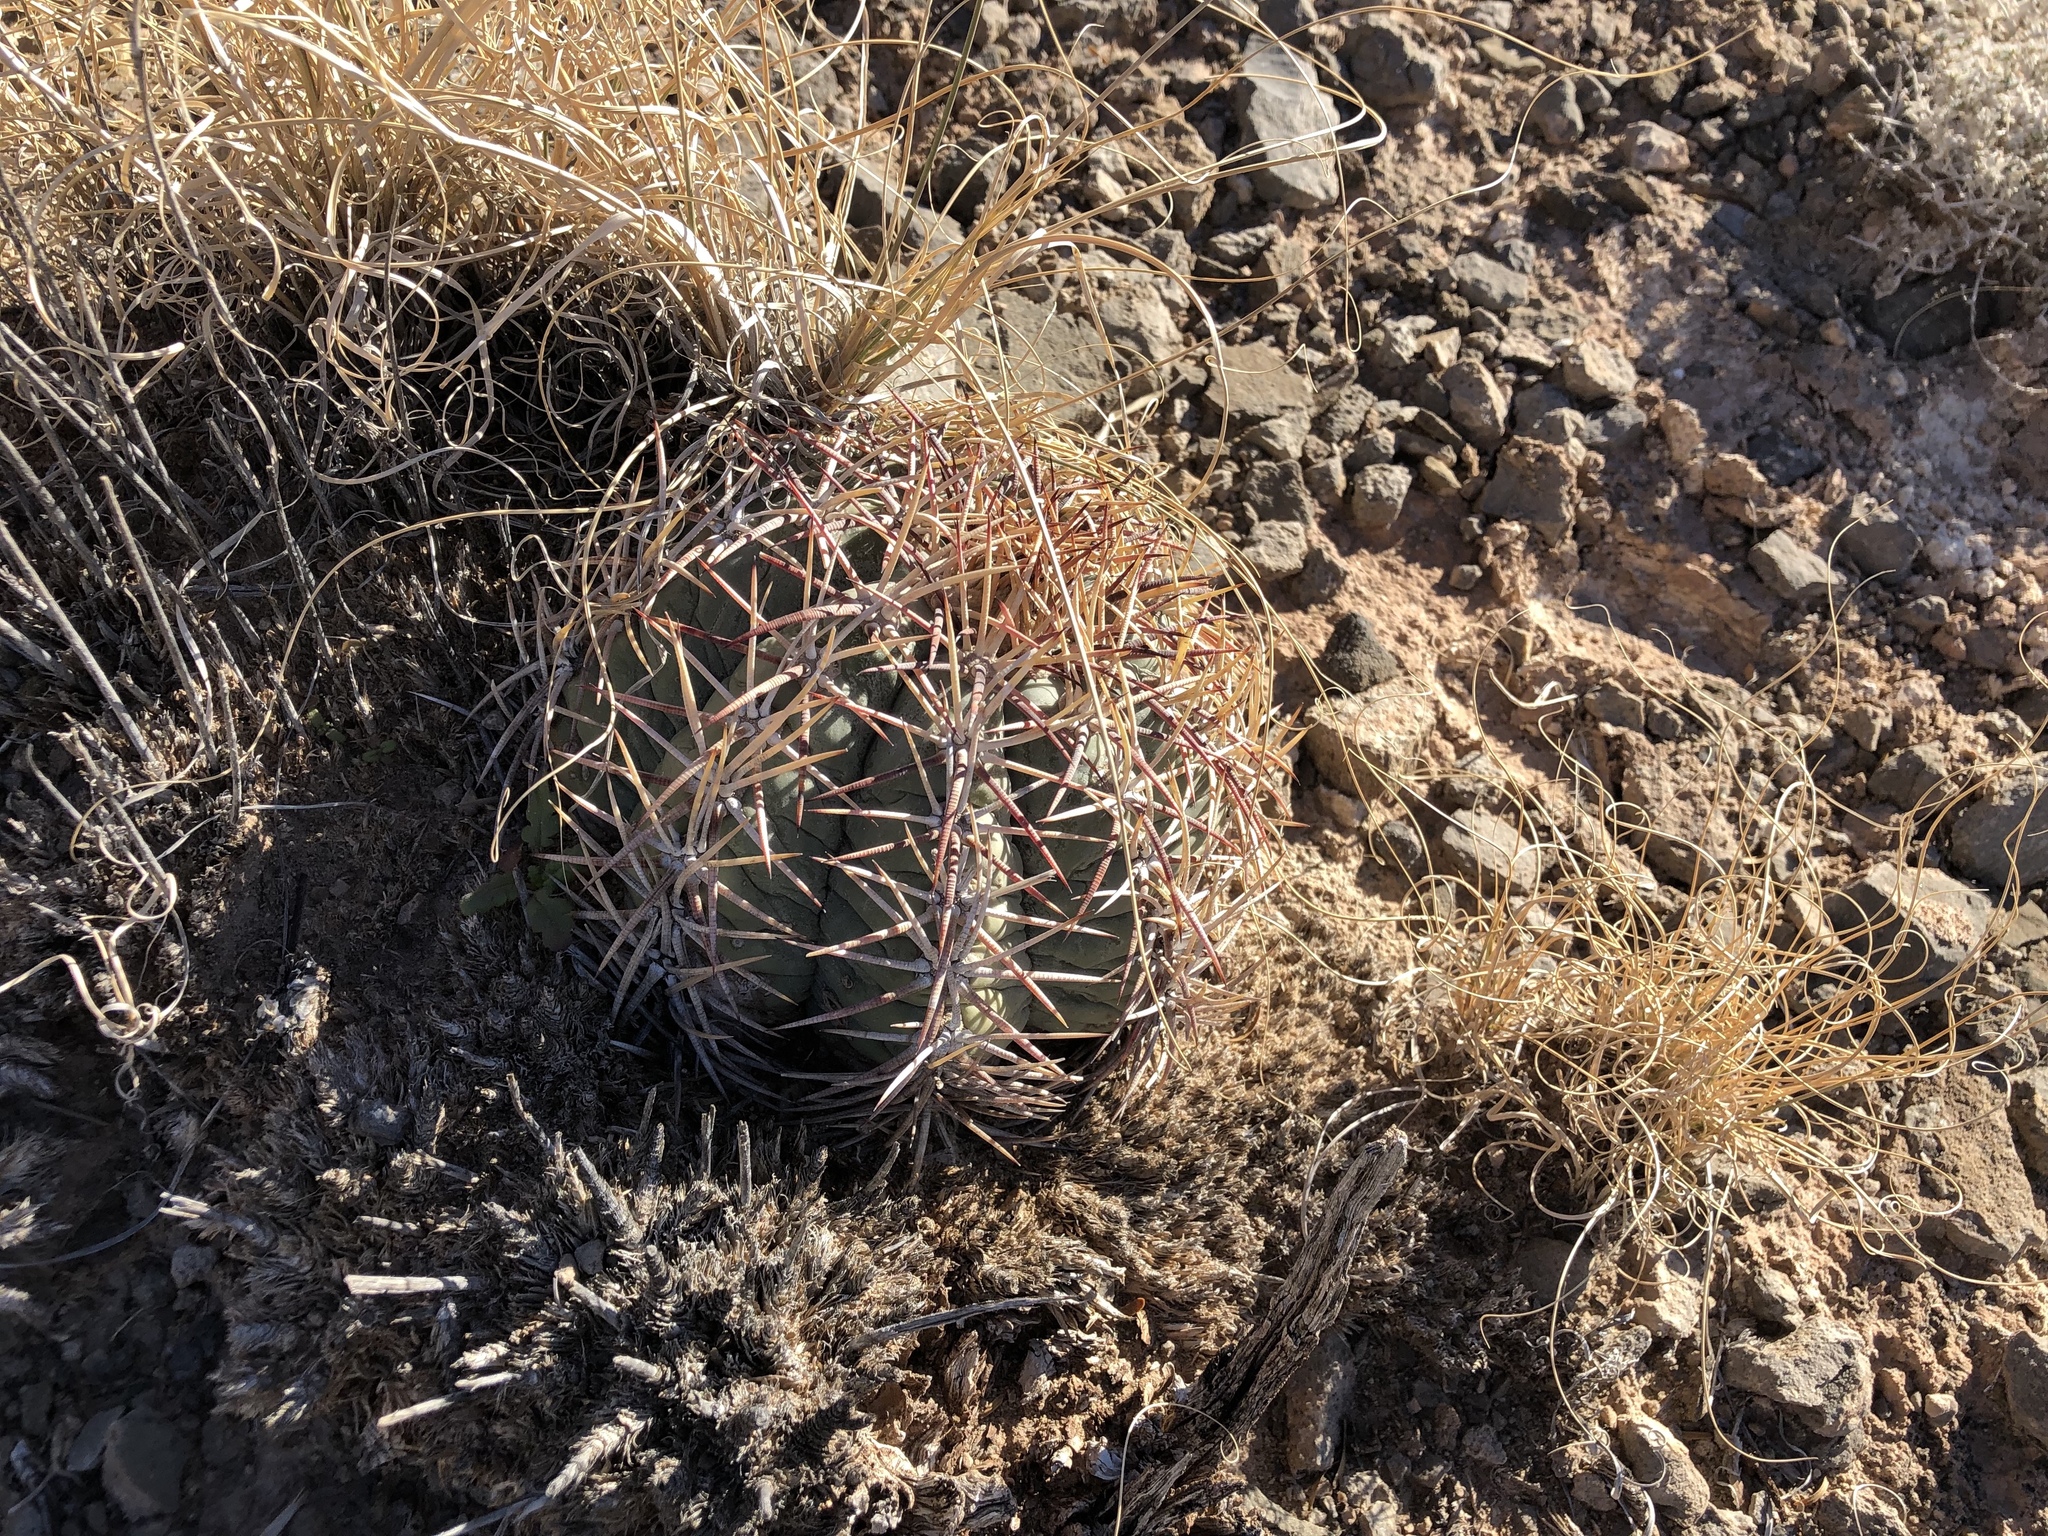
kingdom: Plantae
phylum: Tracheophyta
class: Magnoliopsida
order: Caryophyllales
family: Cactaceae
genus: Echinocactus
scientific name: Echinocactus horizonthalonius
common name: Devilshead
